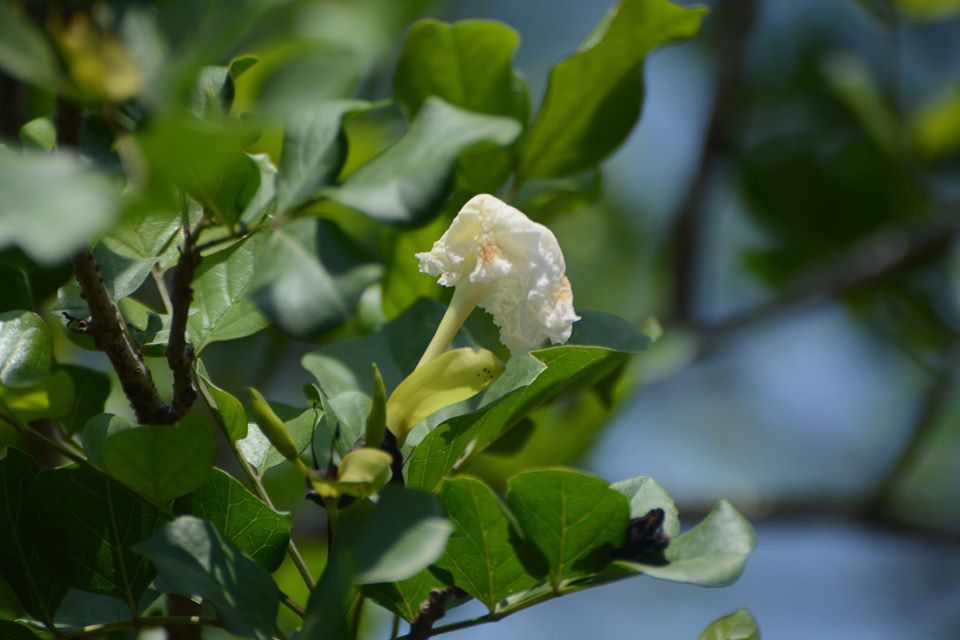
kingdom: Plantae
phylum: Tracheophyta
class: Magnoliopsida
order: Lamiales
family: Bignoniaceae
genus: Dolichandrone
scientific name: Dolichandrone falcata
